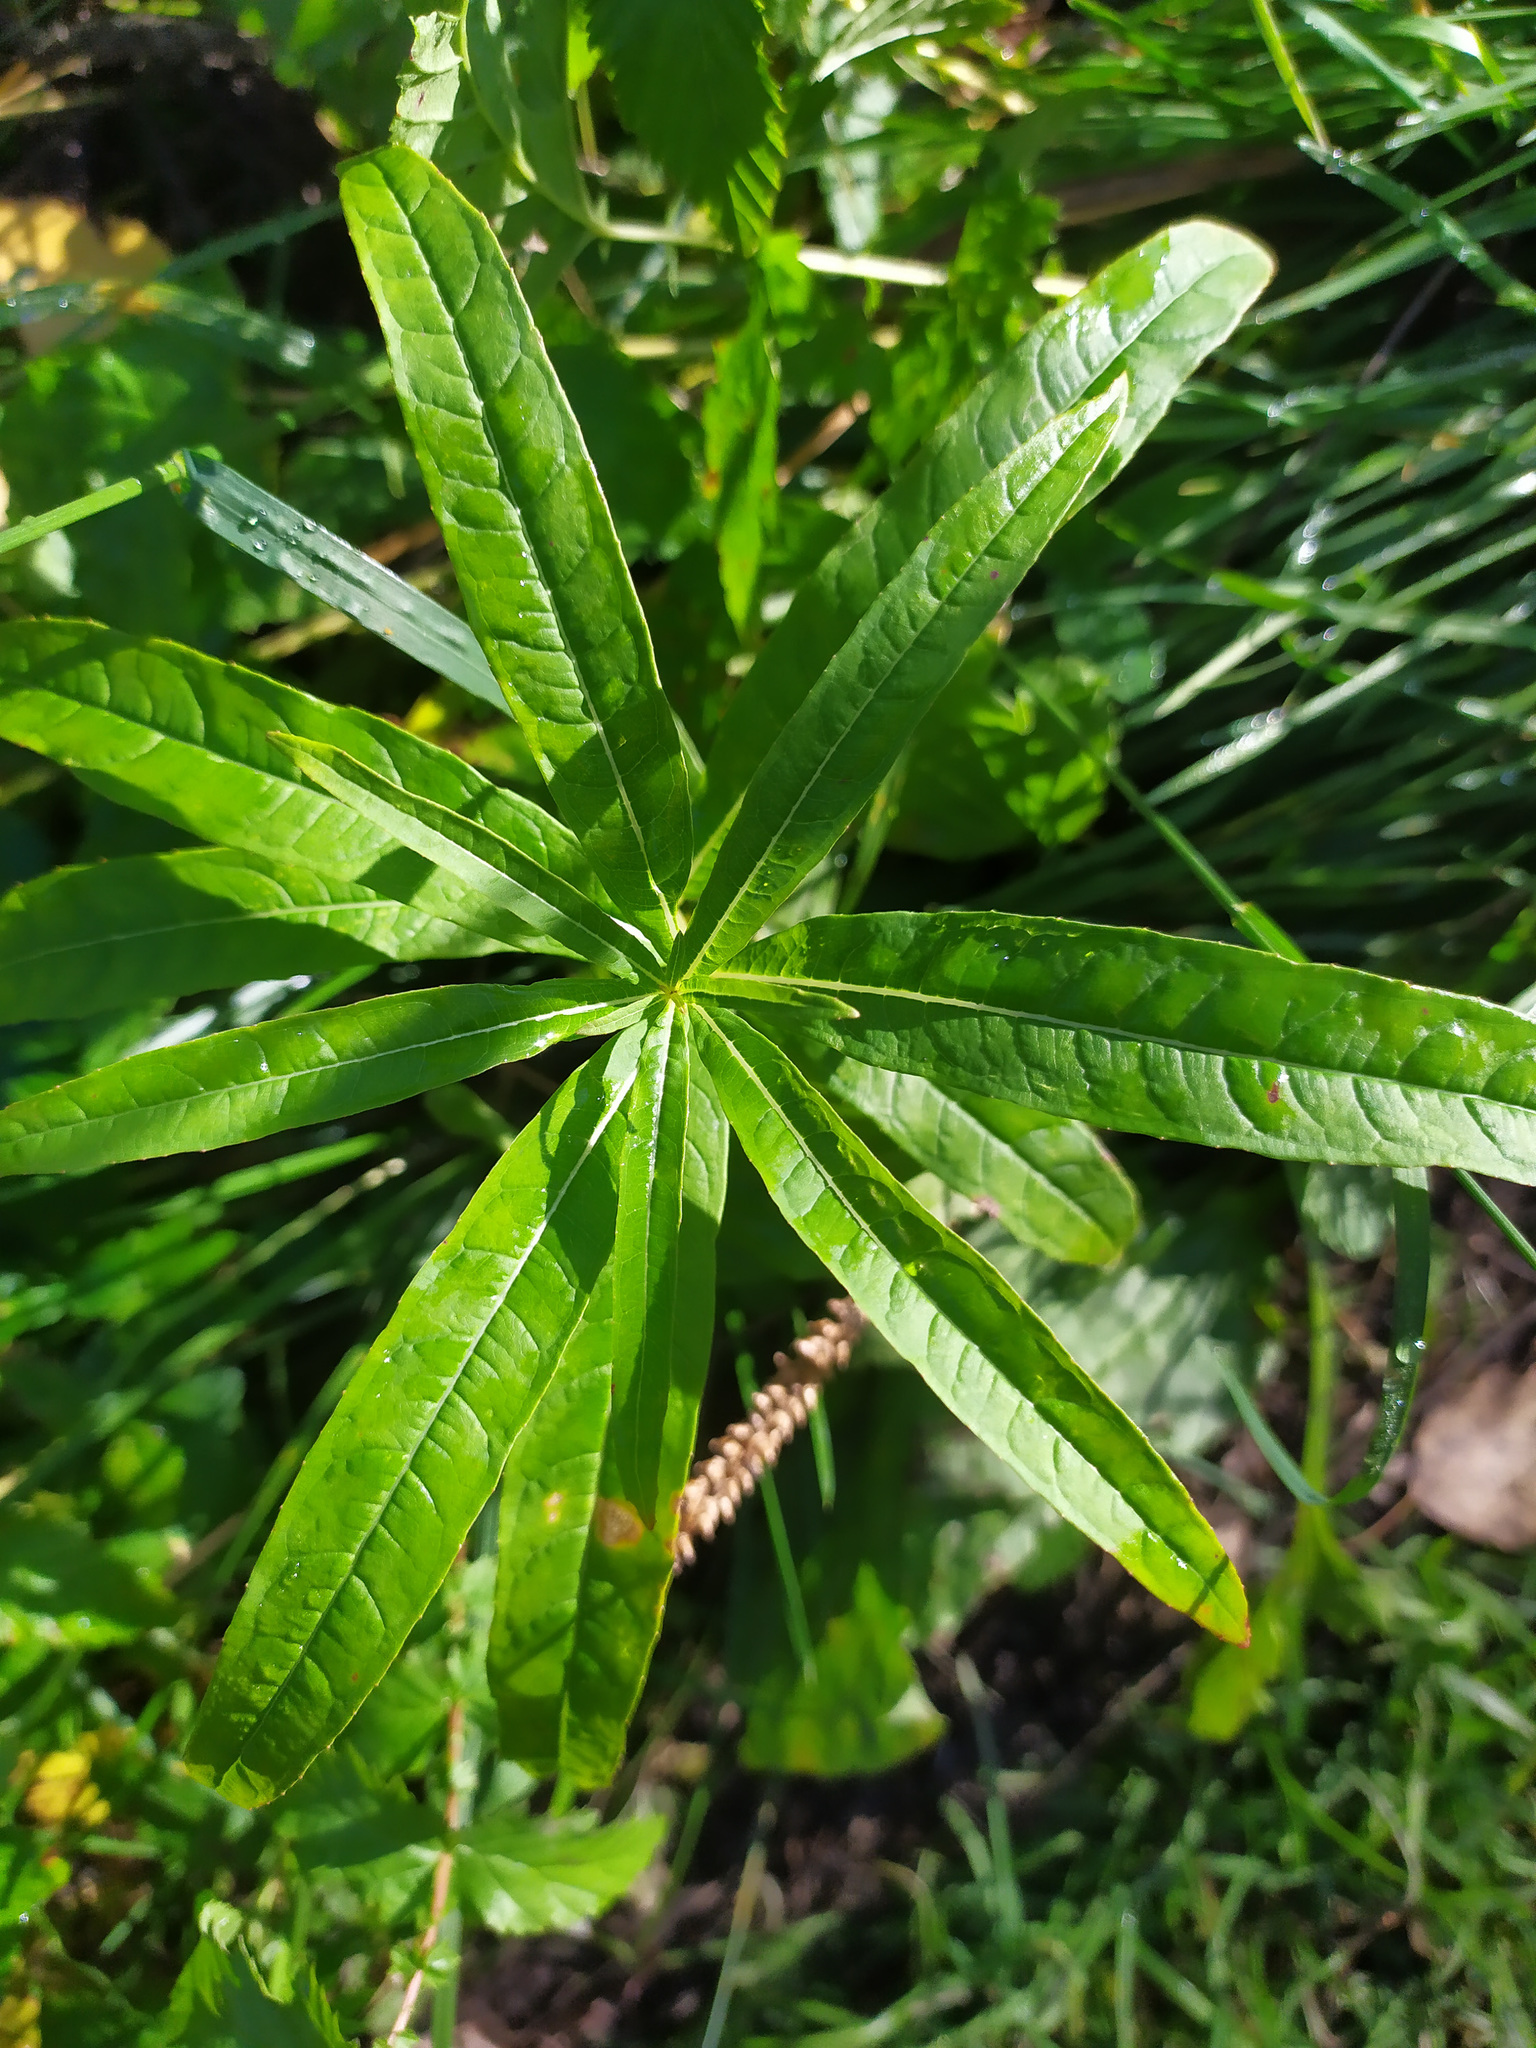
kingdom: Plantae
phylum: Tracheophyta
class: Magnoliopsida
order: Myrtales
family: Onagraceae
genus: Chamaenerion
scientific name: Chamaenerion angustifolium
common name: Fireweed
